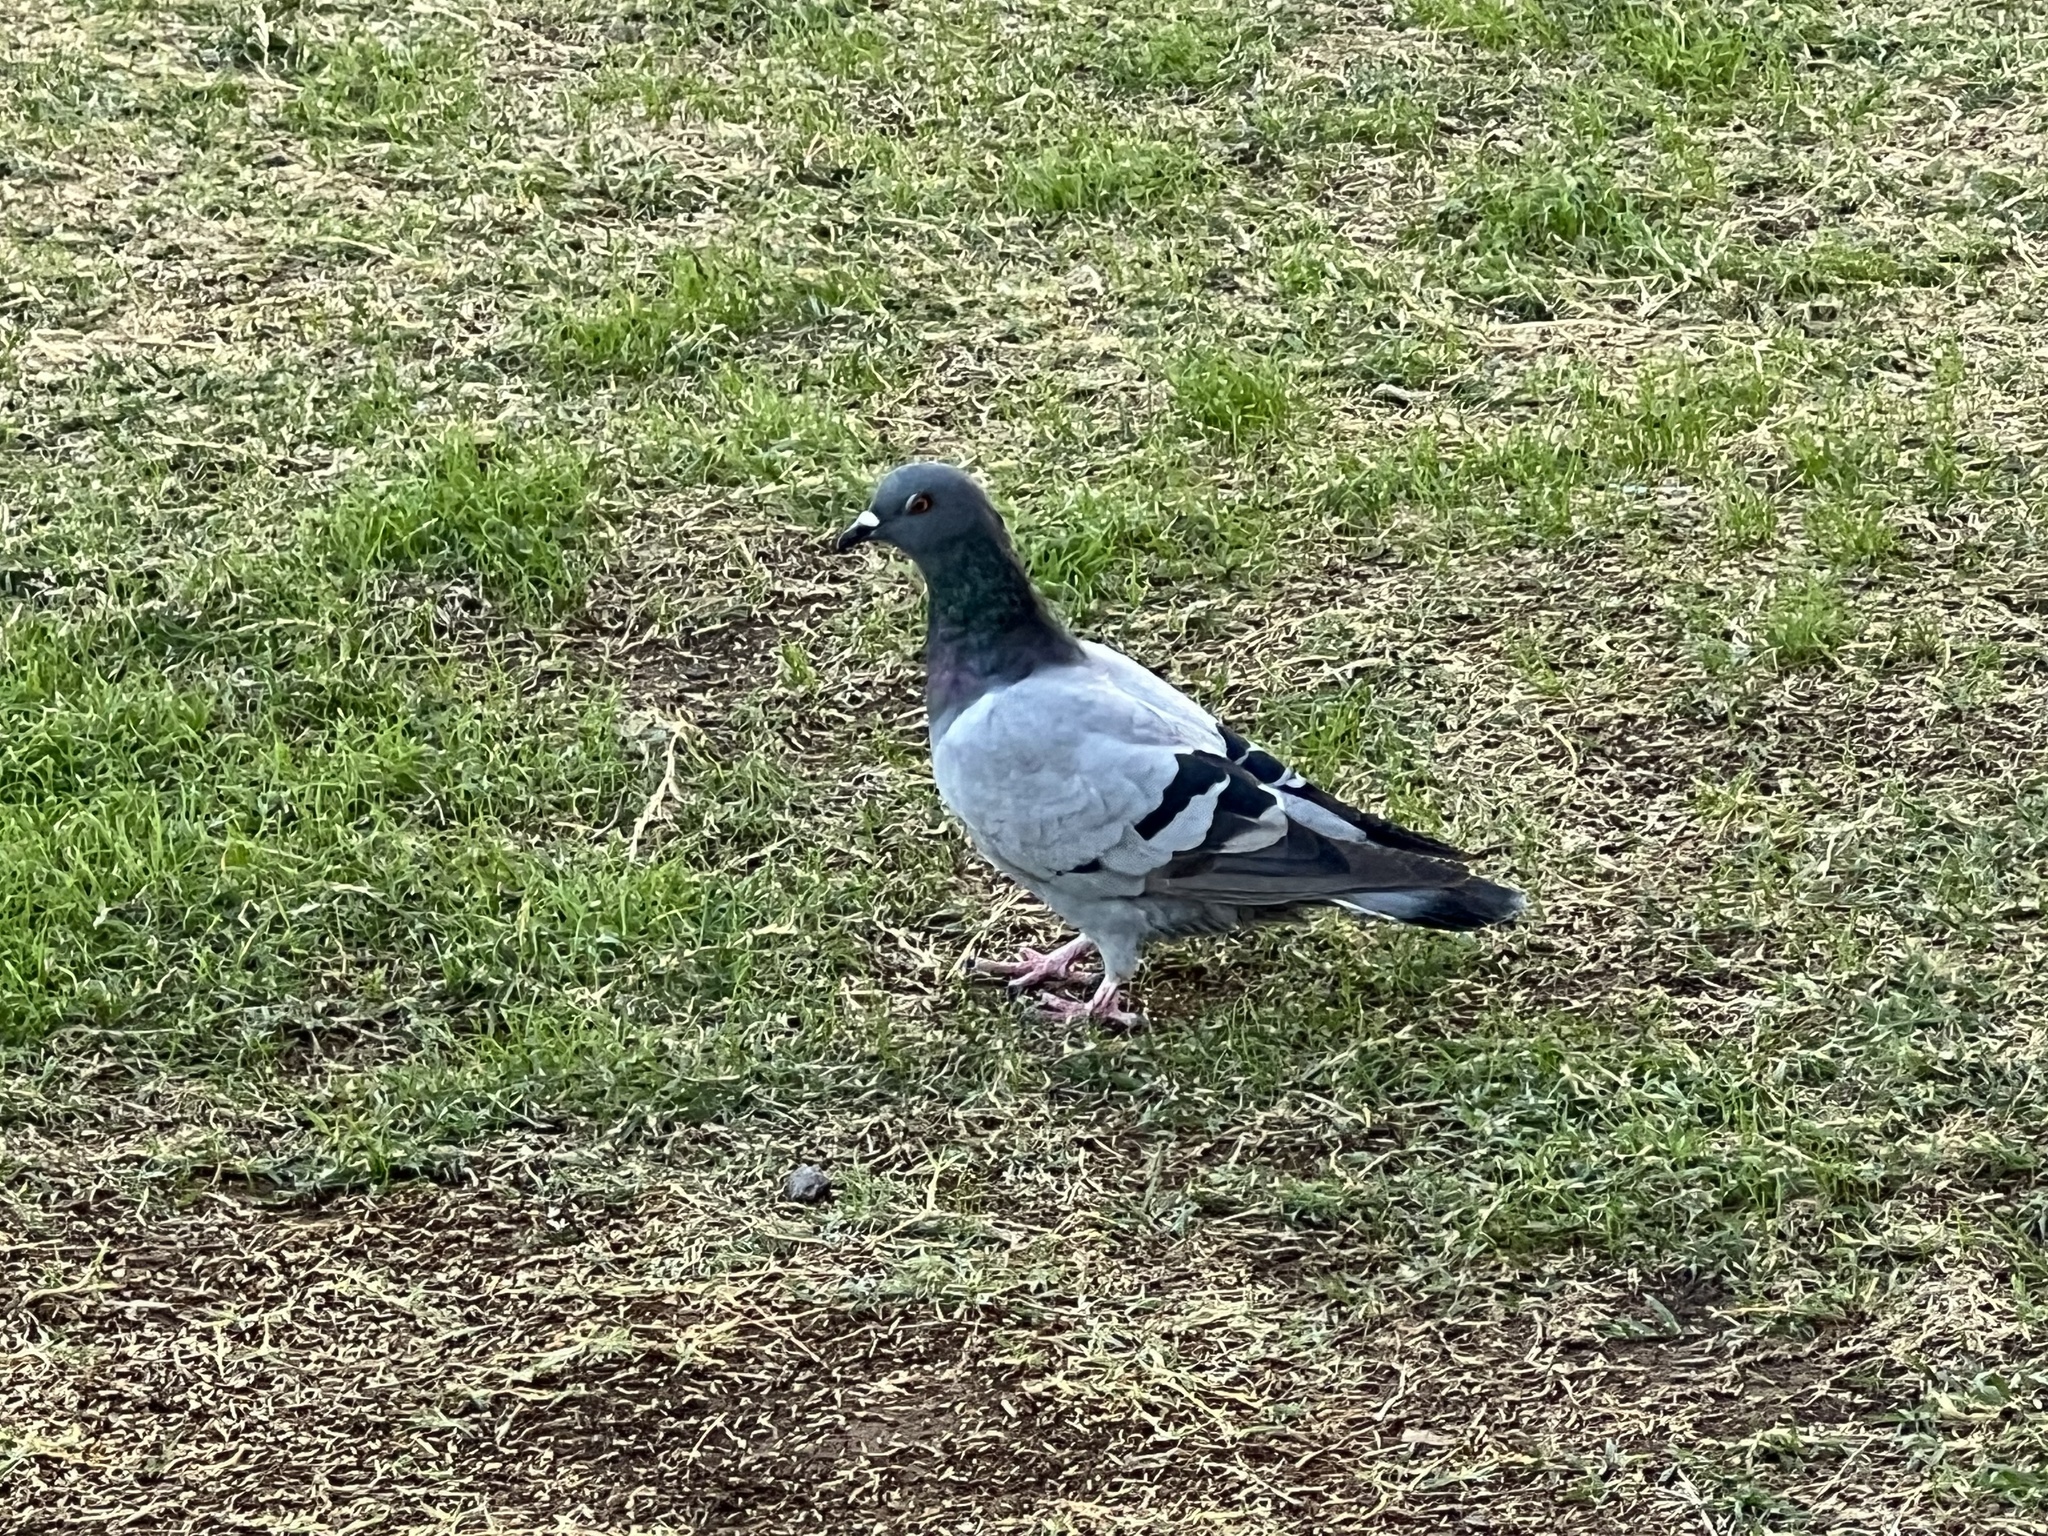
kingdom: Animalia
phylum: Chordata
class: Aves
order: Columbiformes
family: Columbidae
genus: Columba
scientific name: Columba livia
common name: Rock pigeon
